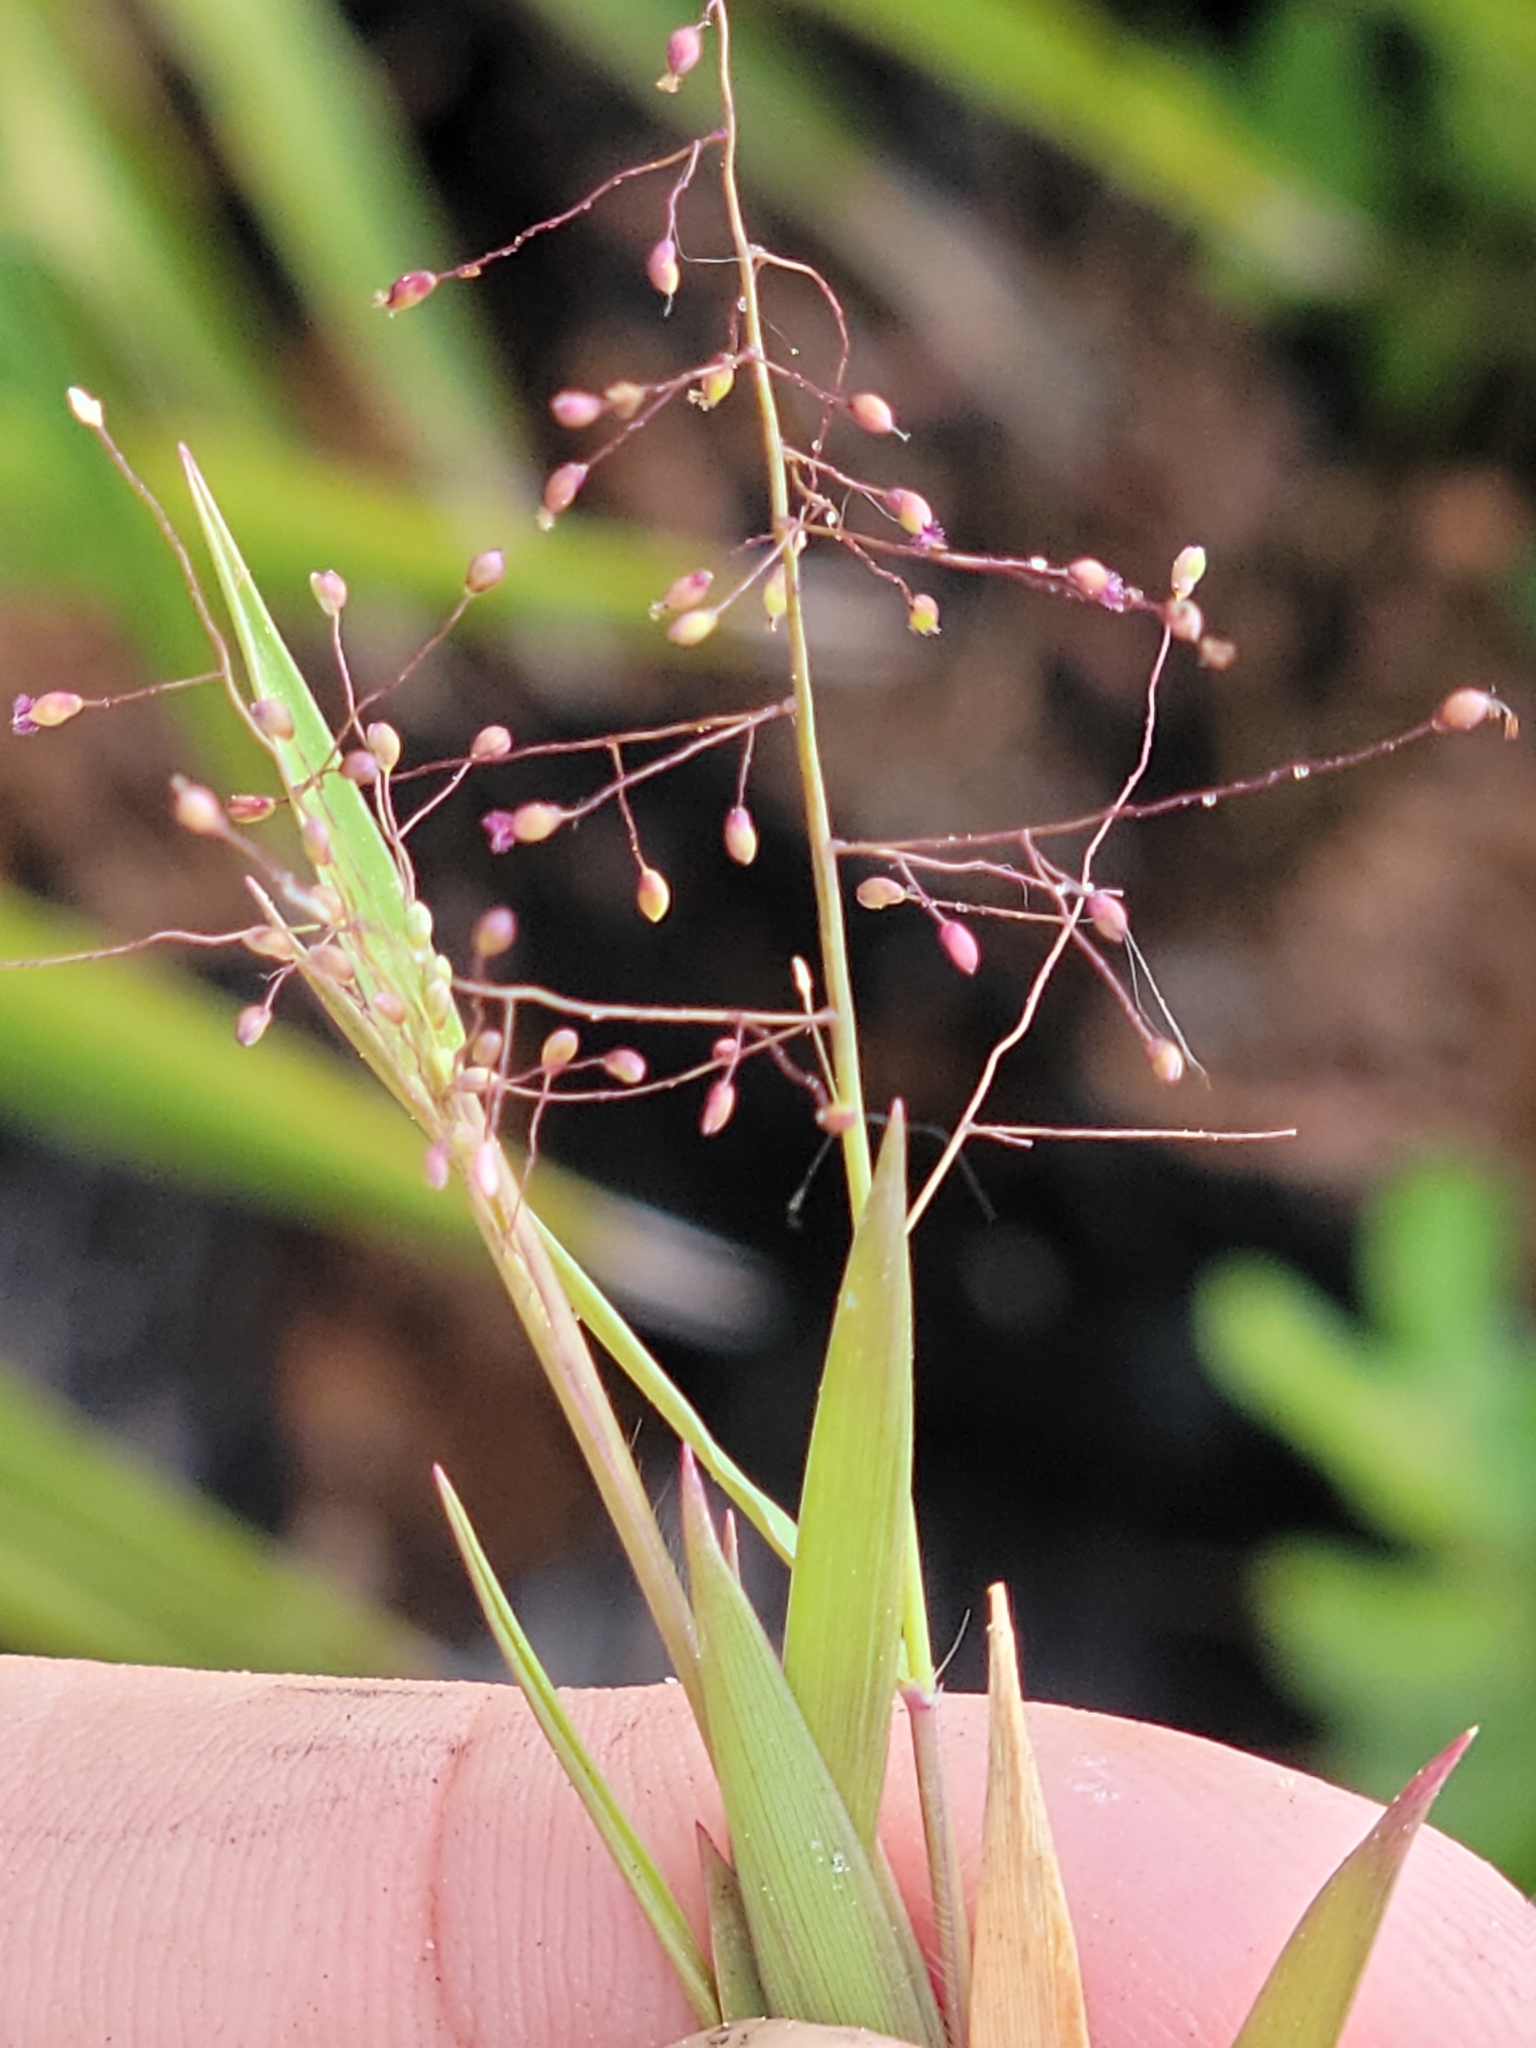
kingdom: Plantae
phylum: Tracheophyta
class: Liliopsida
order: Poales
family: Poaceae
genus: Dichanthelium
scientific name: Dichanthelium chamaelonche
